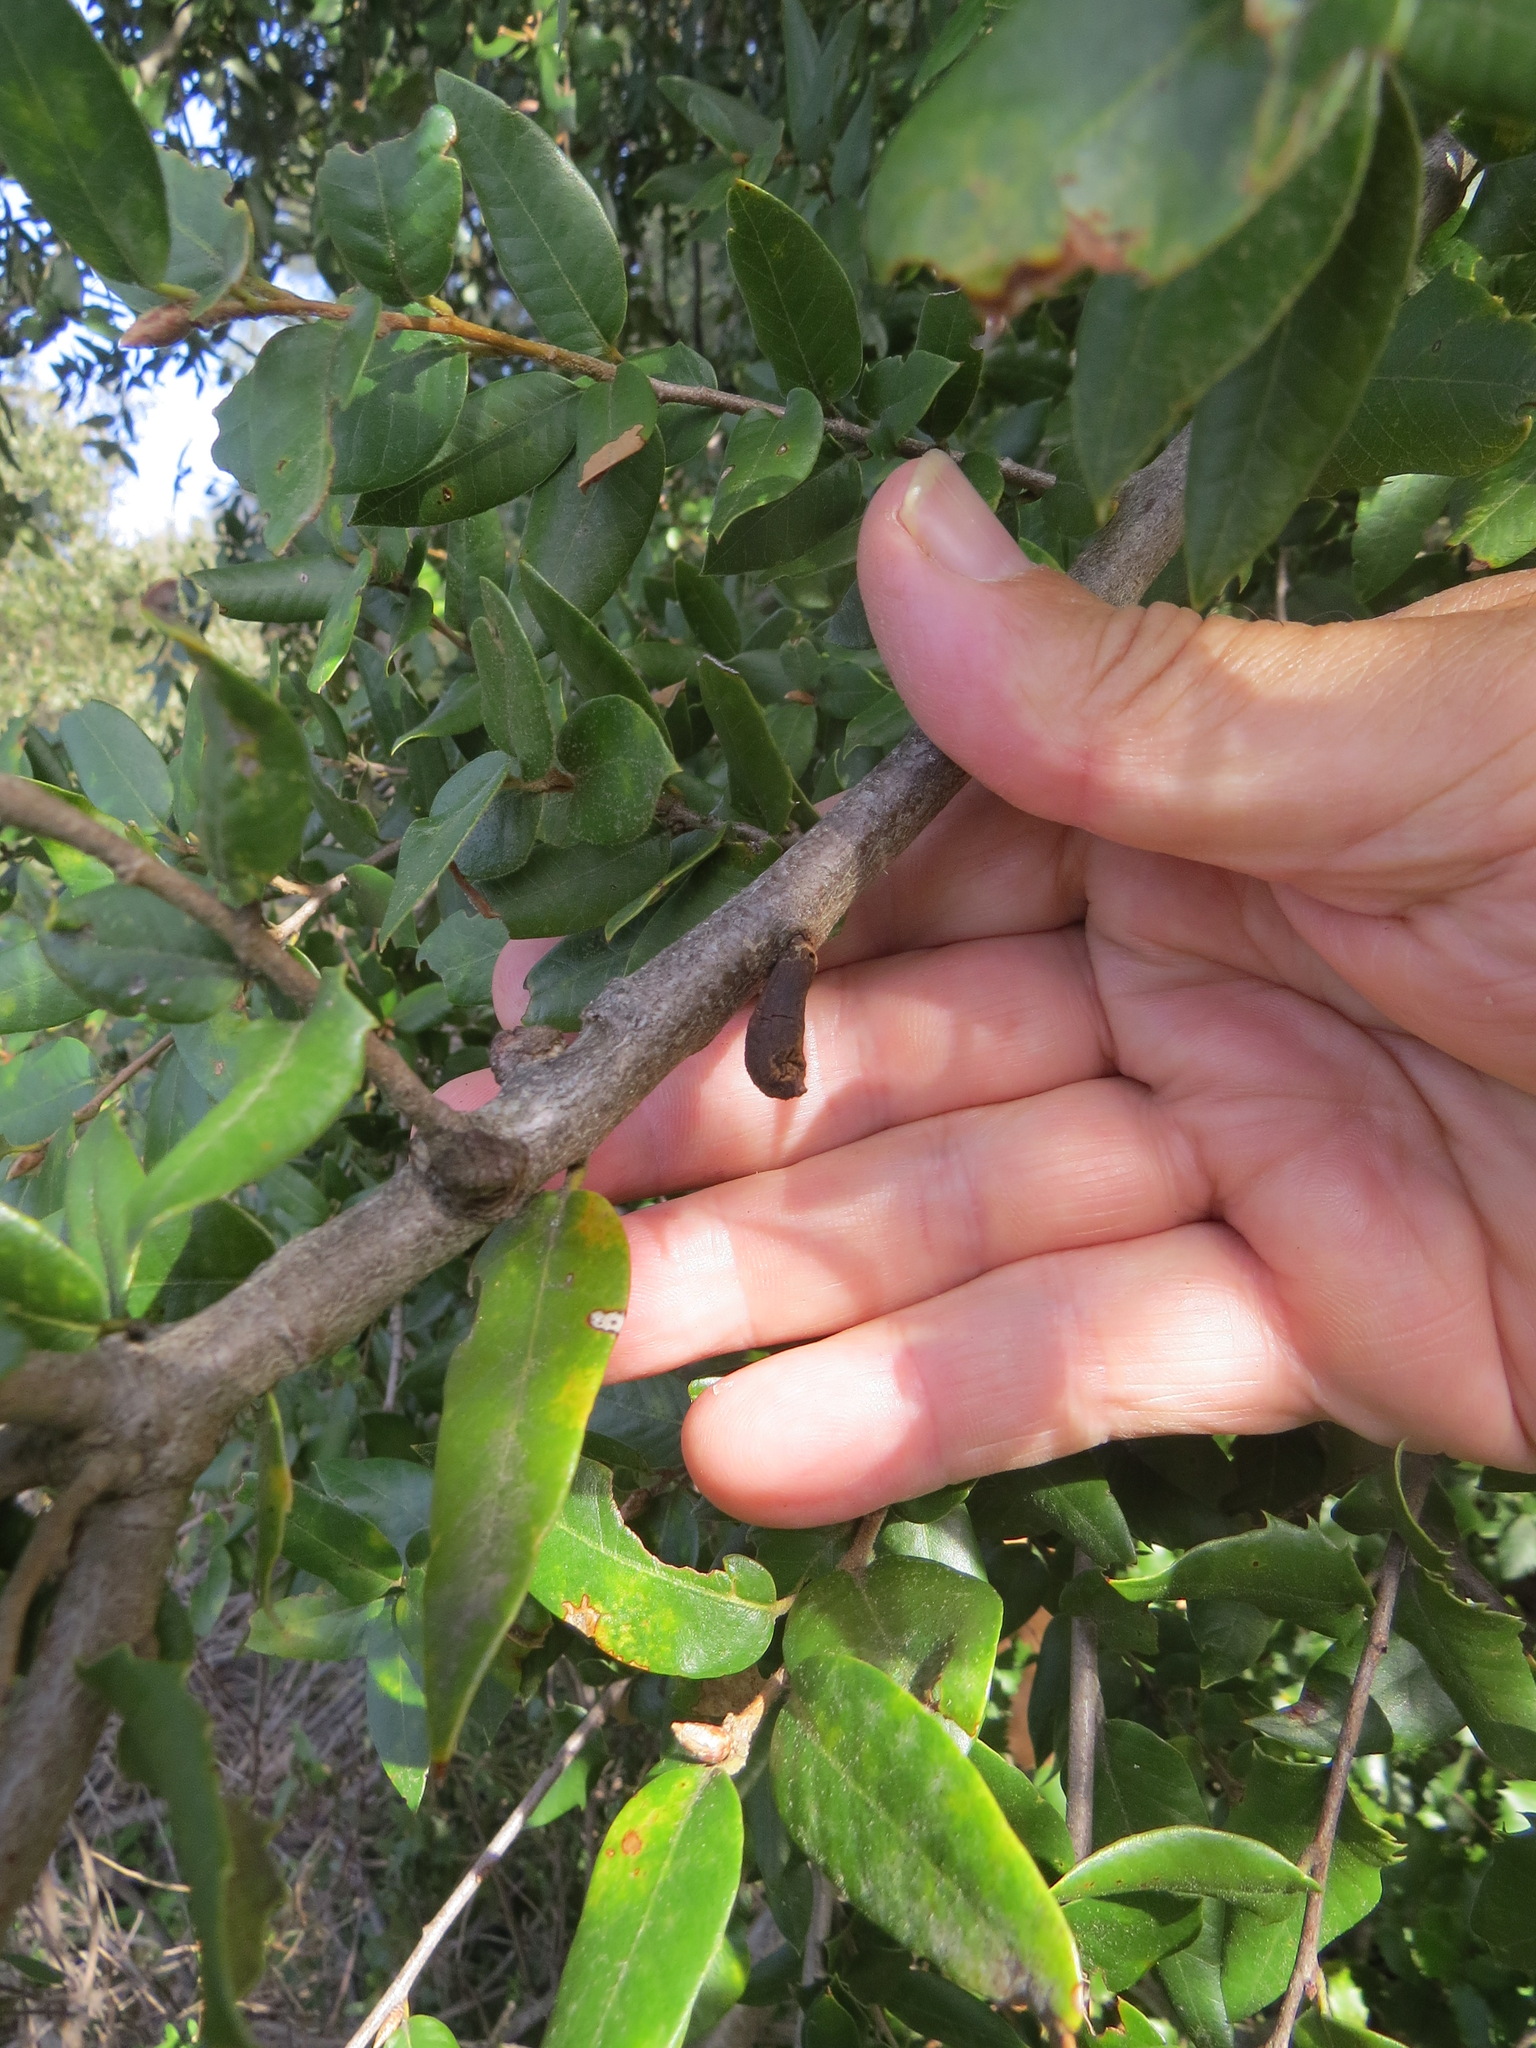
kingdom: Animalia
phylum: Arthropoda
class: Insecta
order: Hymenoptera
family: Cynipidae
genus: Heteroecus
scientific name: Heteroecus
